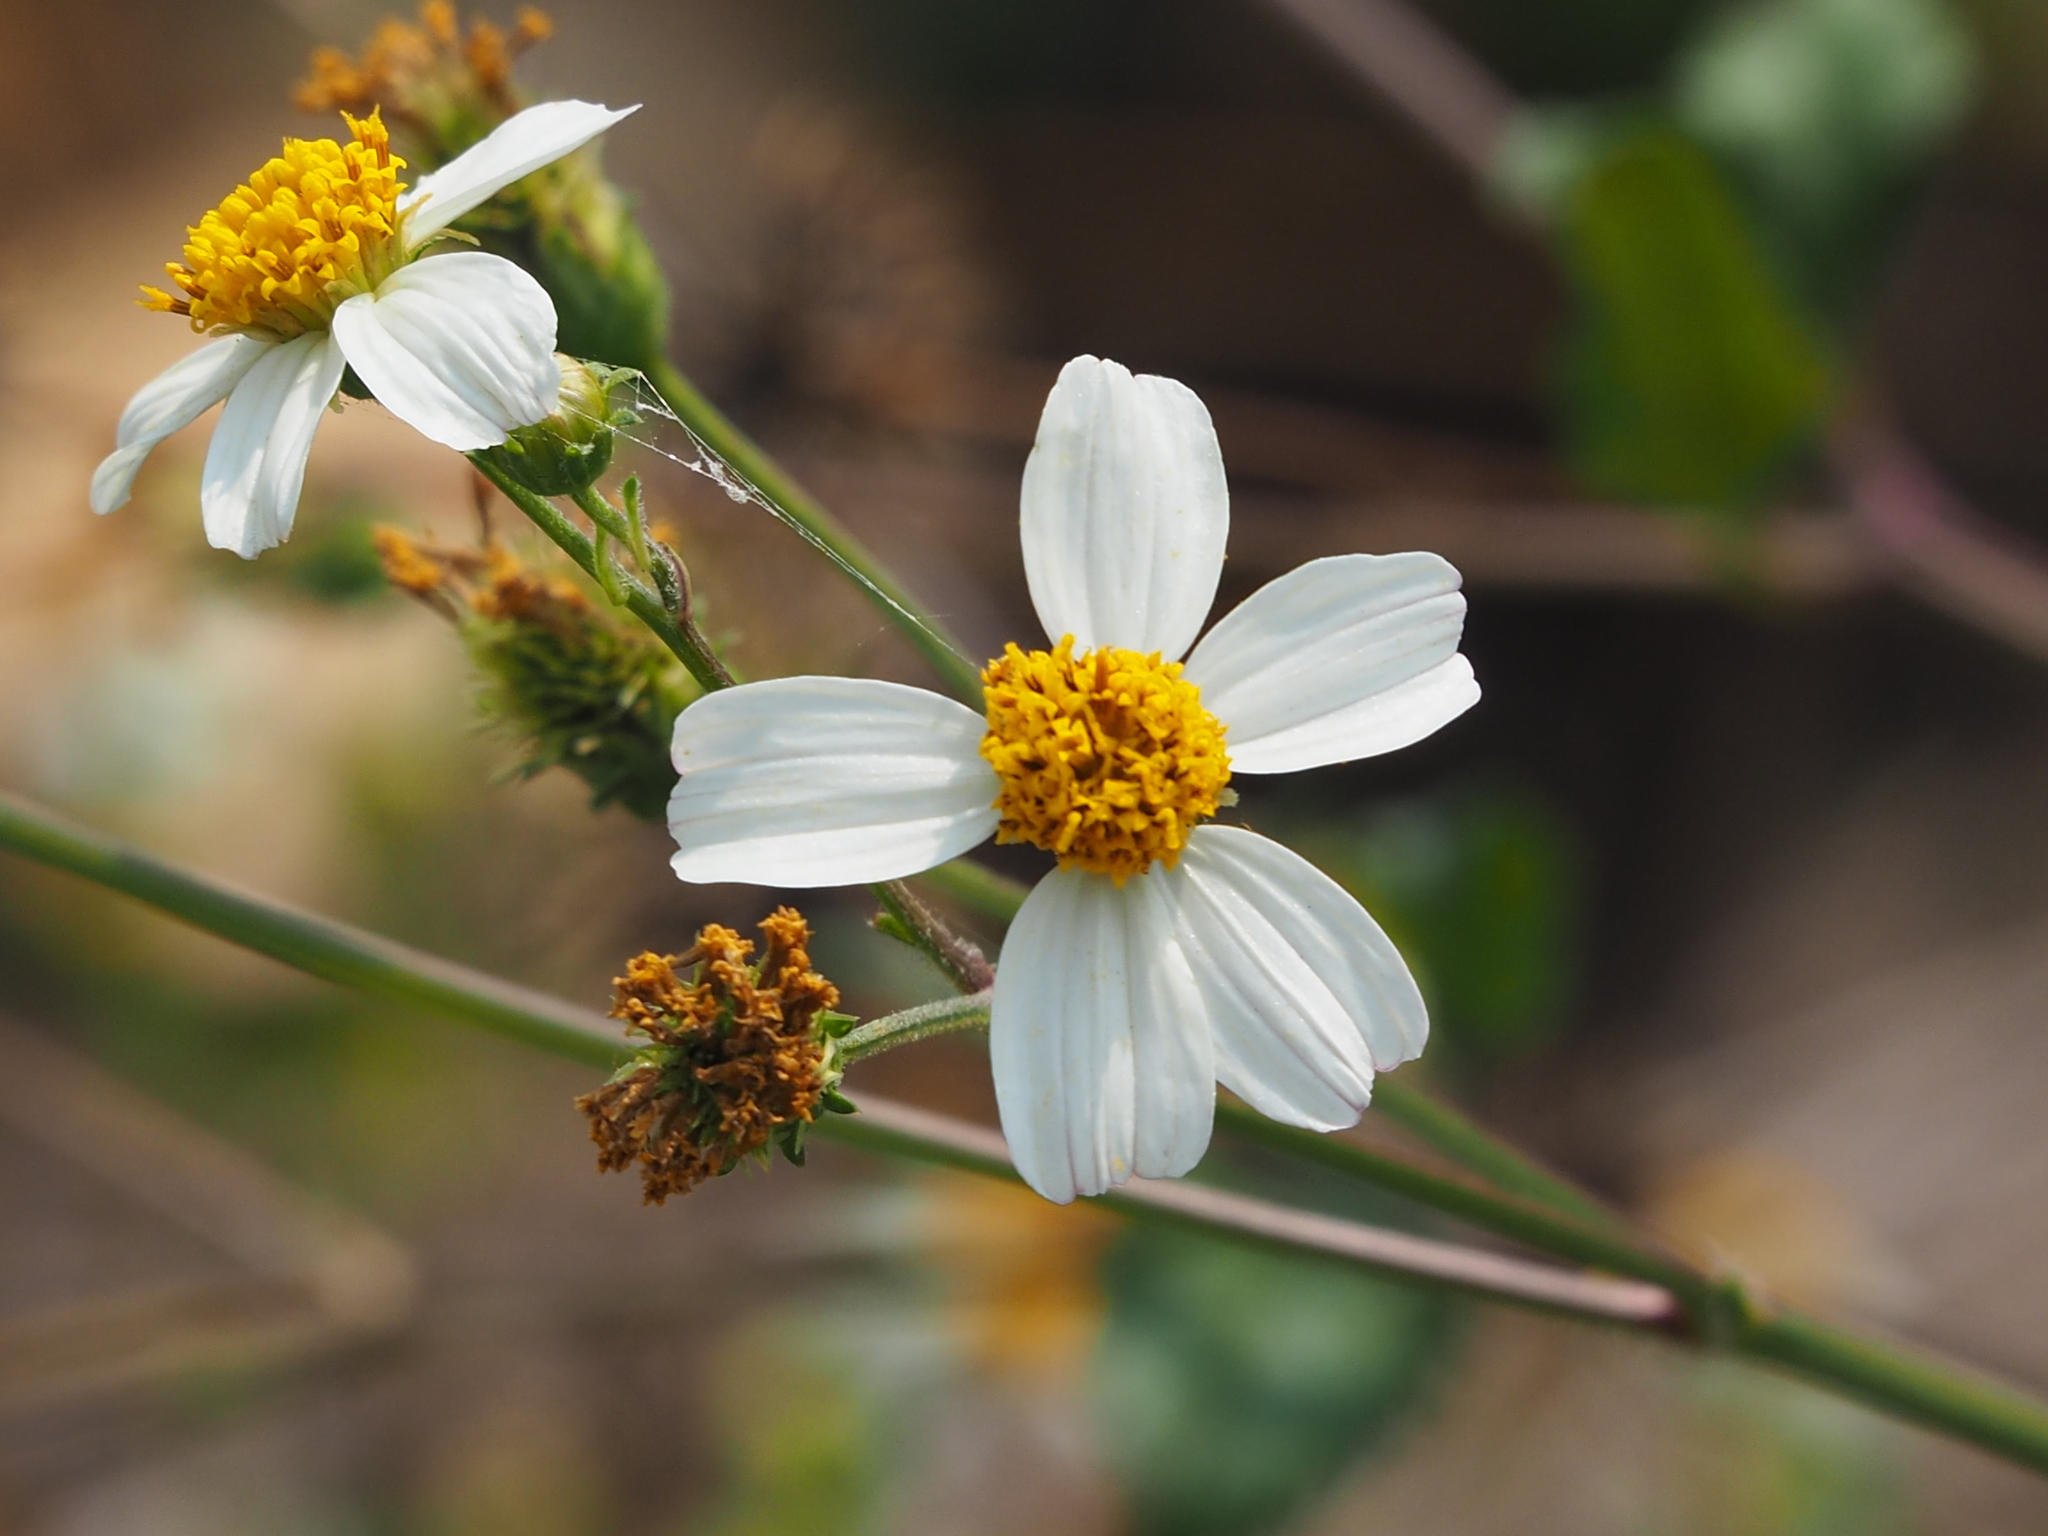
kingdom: Plantae
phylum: Tracheophyta
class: Magnoliopsida
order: Asterales
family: Asteraceae
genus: Bidens
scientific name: Bidens alba
